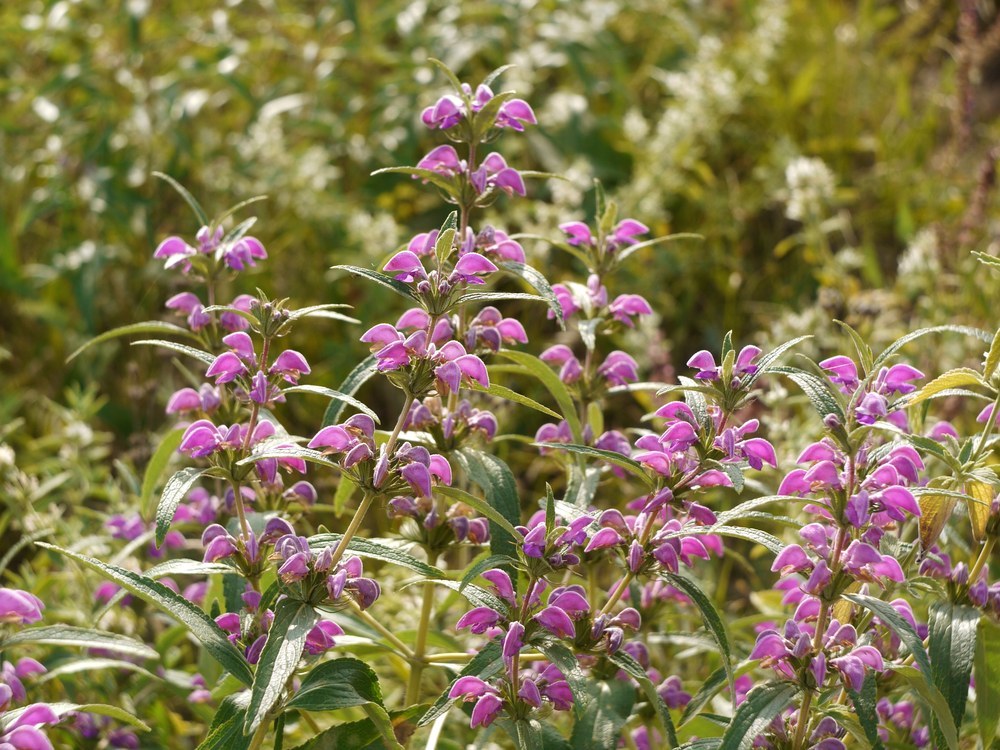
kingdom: Plantae
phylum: Tracheophyta
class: Magnoliopsida
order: Lamiales
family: Lamiaceae
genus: Phlomis
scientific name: Phlomis herba-venti
